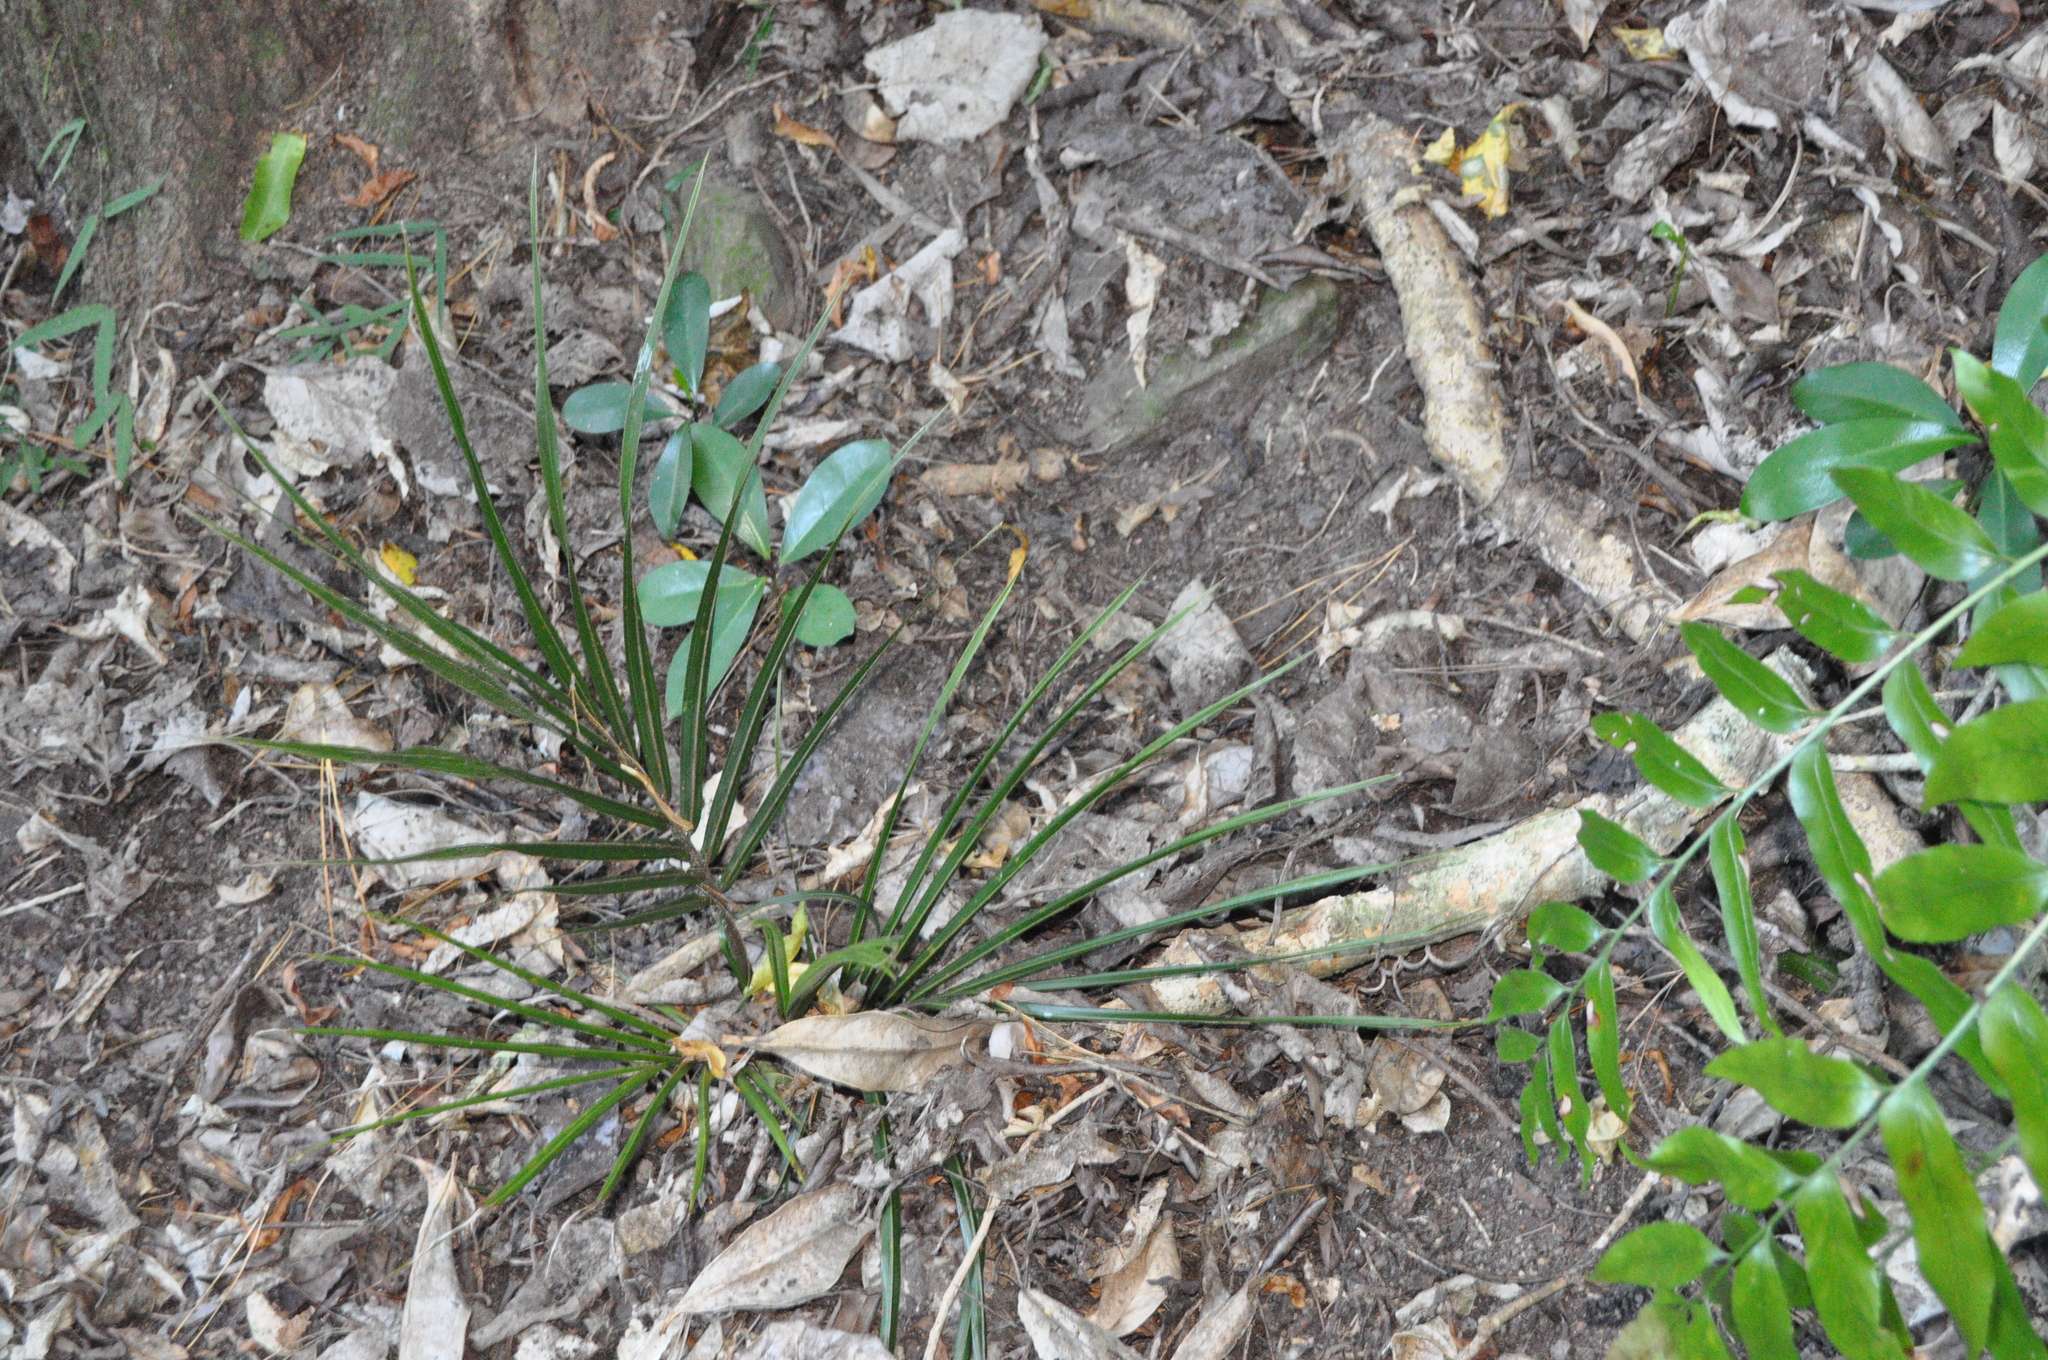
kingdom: Plantae
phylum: Tracheophyta
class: Liliopsida
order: Arecales
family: Arecaceae
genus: Rhopalostylis
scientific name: Rhopalostylis sapida
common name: Feather-duster palm
